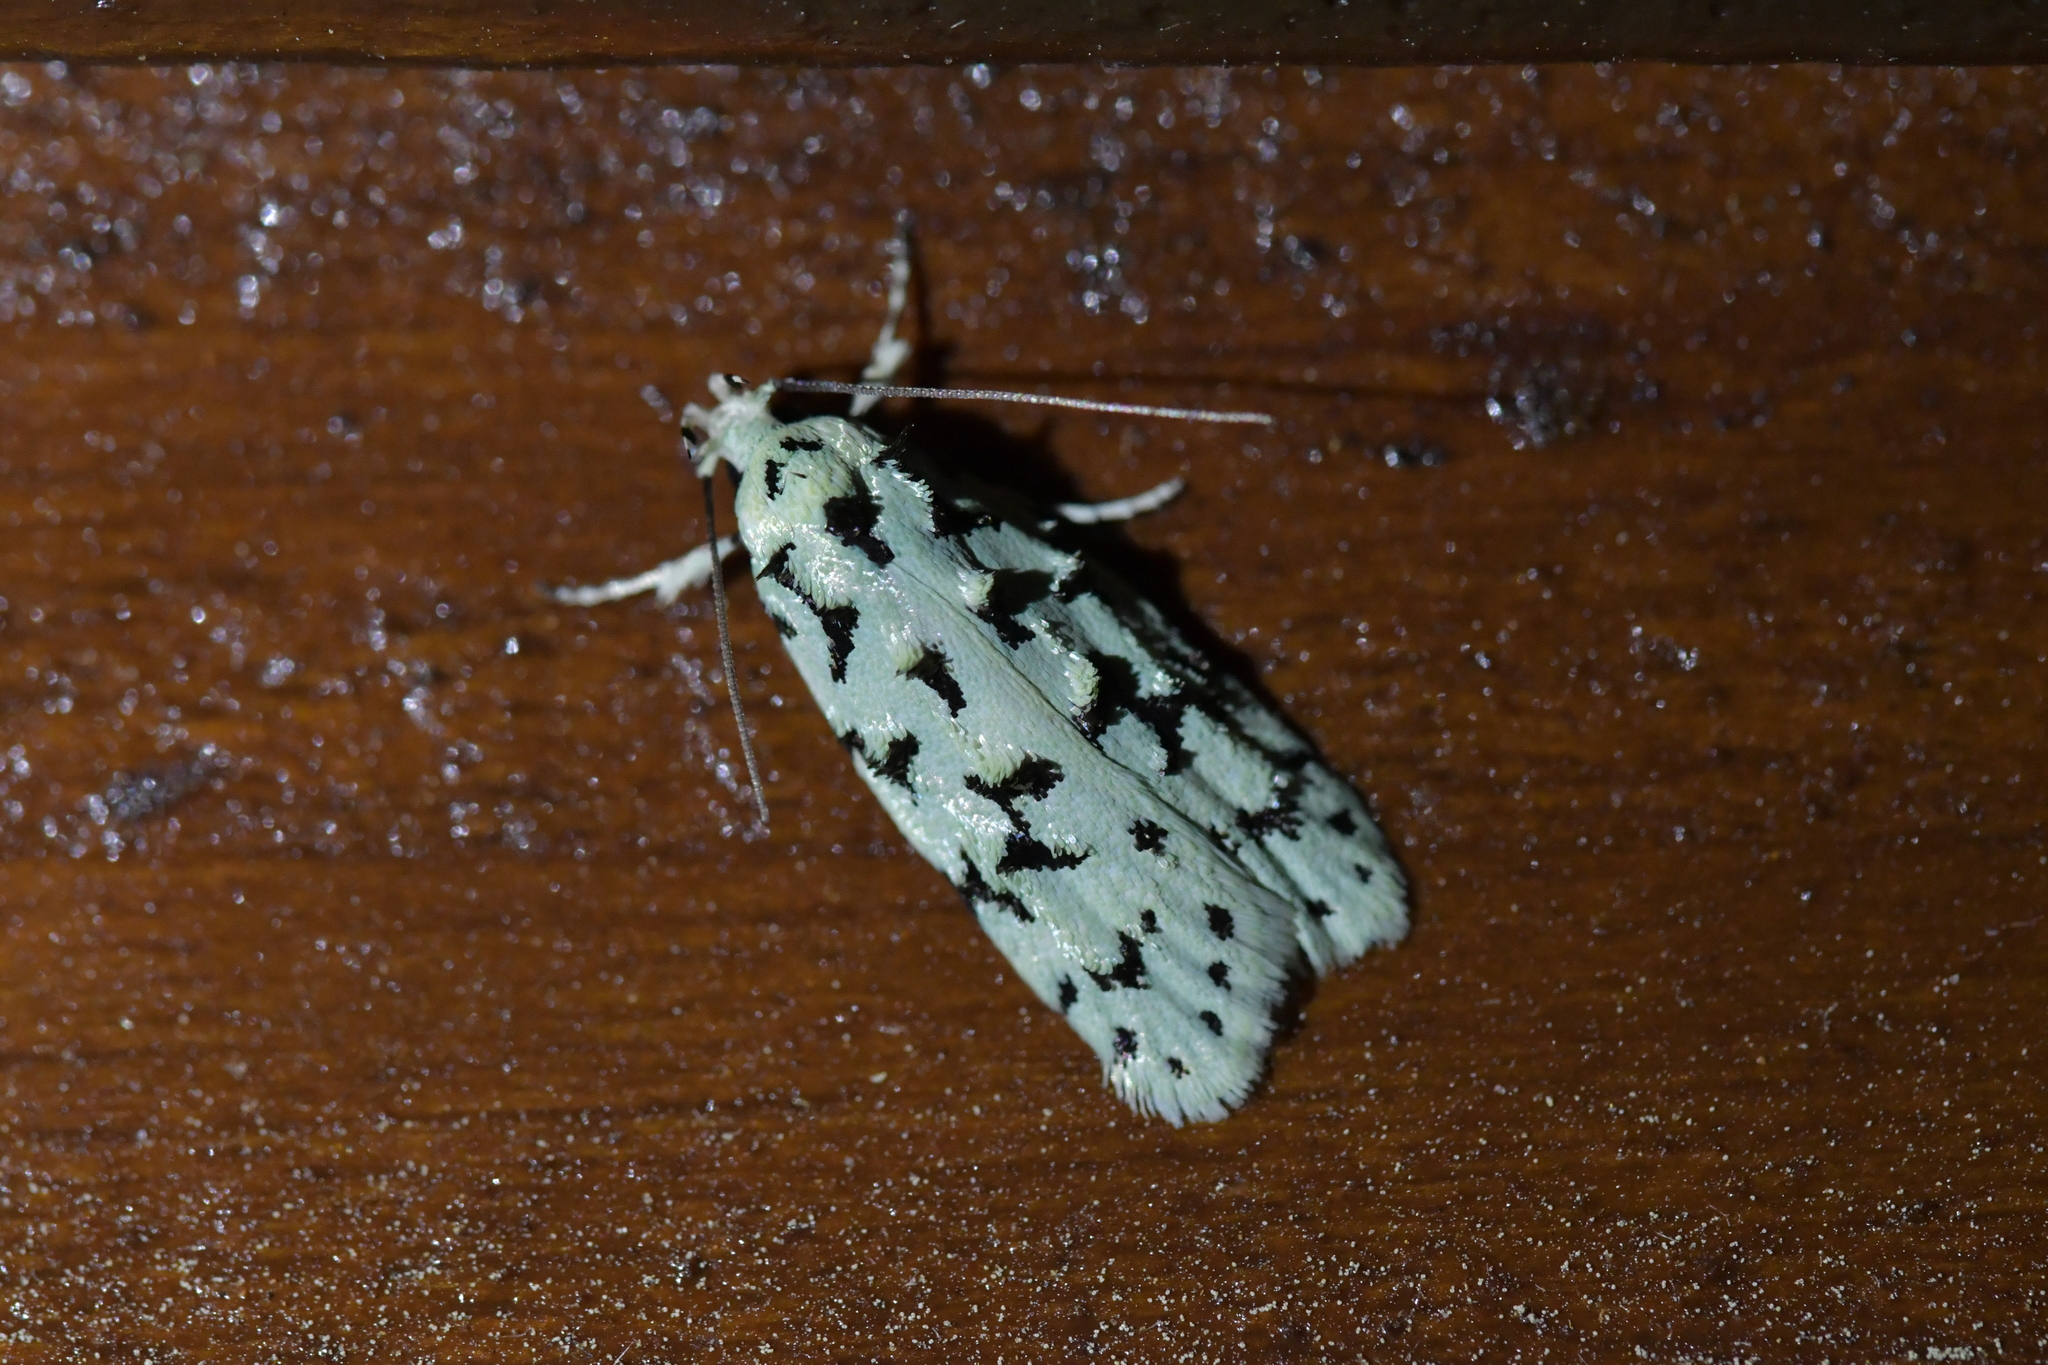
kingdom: Animalia
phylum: Arthropoda
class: Insecta
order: Lepidoptera
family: Oecophoridae
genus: Izatha
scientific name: Izatha huttoni
